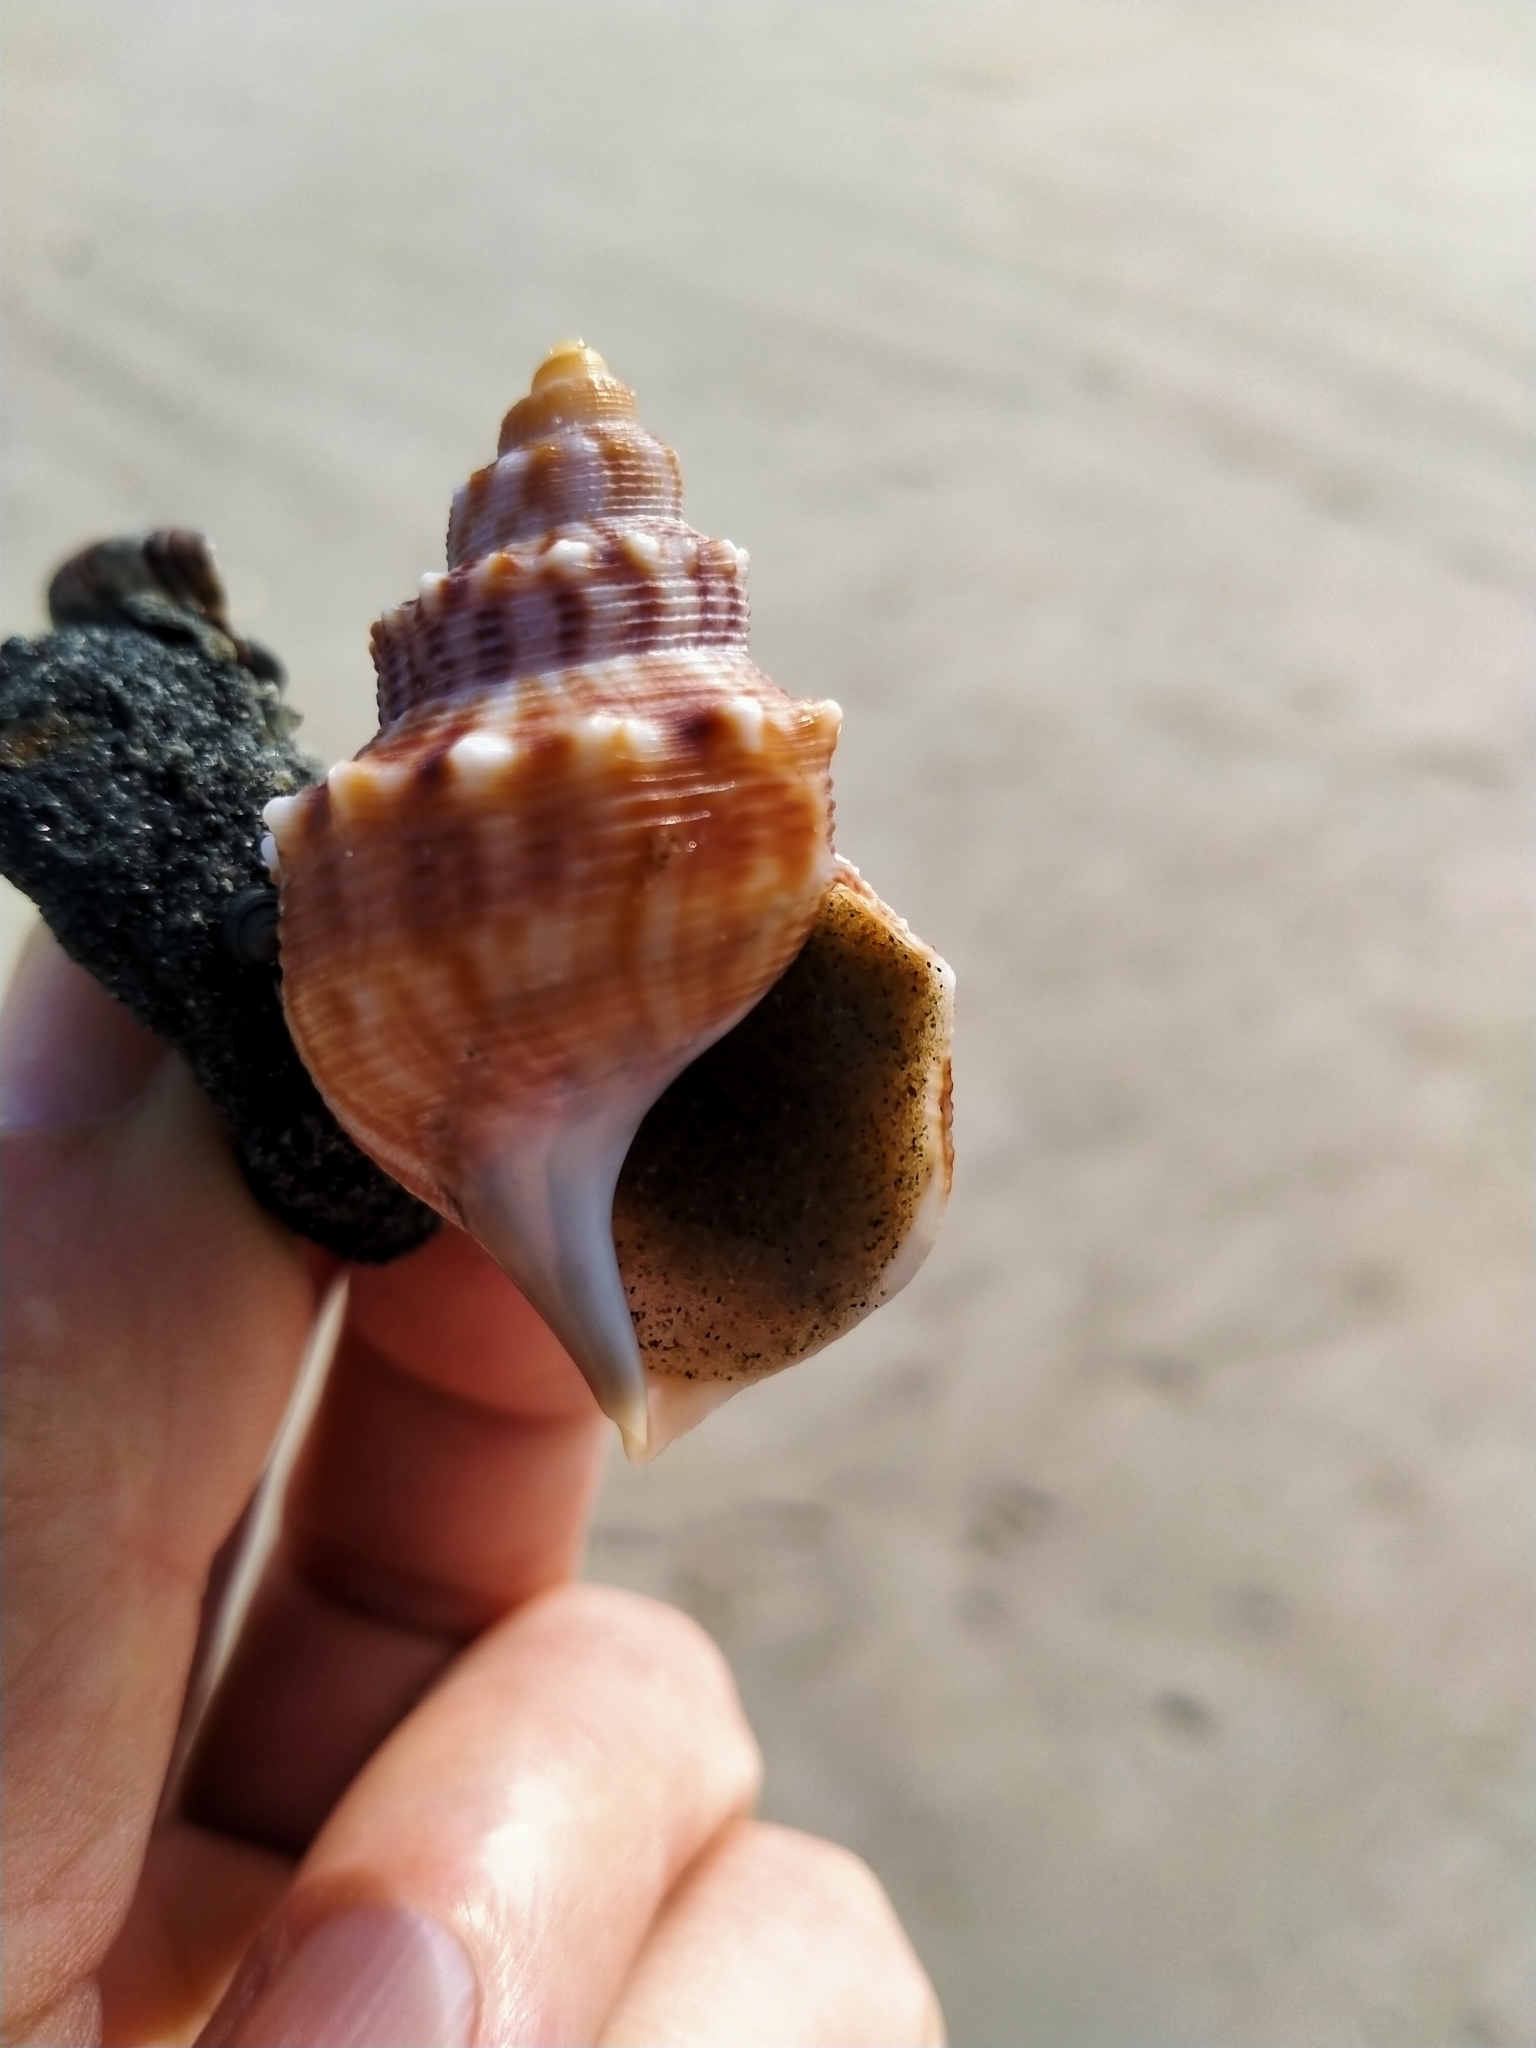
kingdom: Animalia
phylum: Mollusca
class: Gastropoda
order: Littorinimorpha
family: Struthiolariidae
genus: Struthiolaria
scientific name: Struthiolaria papulosa
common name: Large ostrich foot
